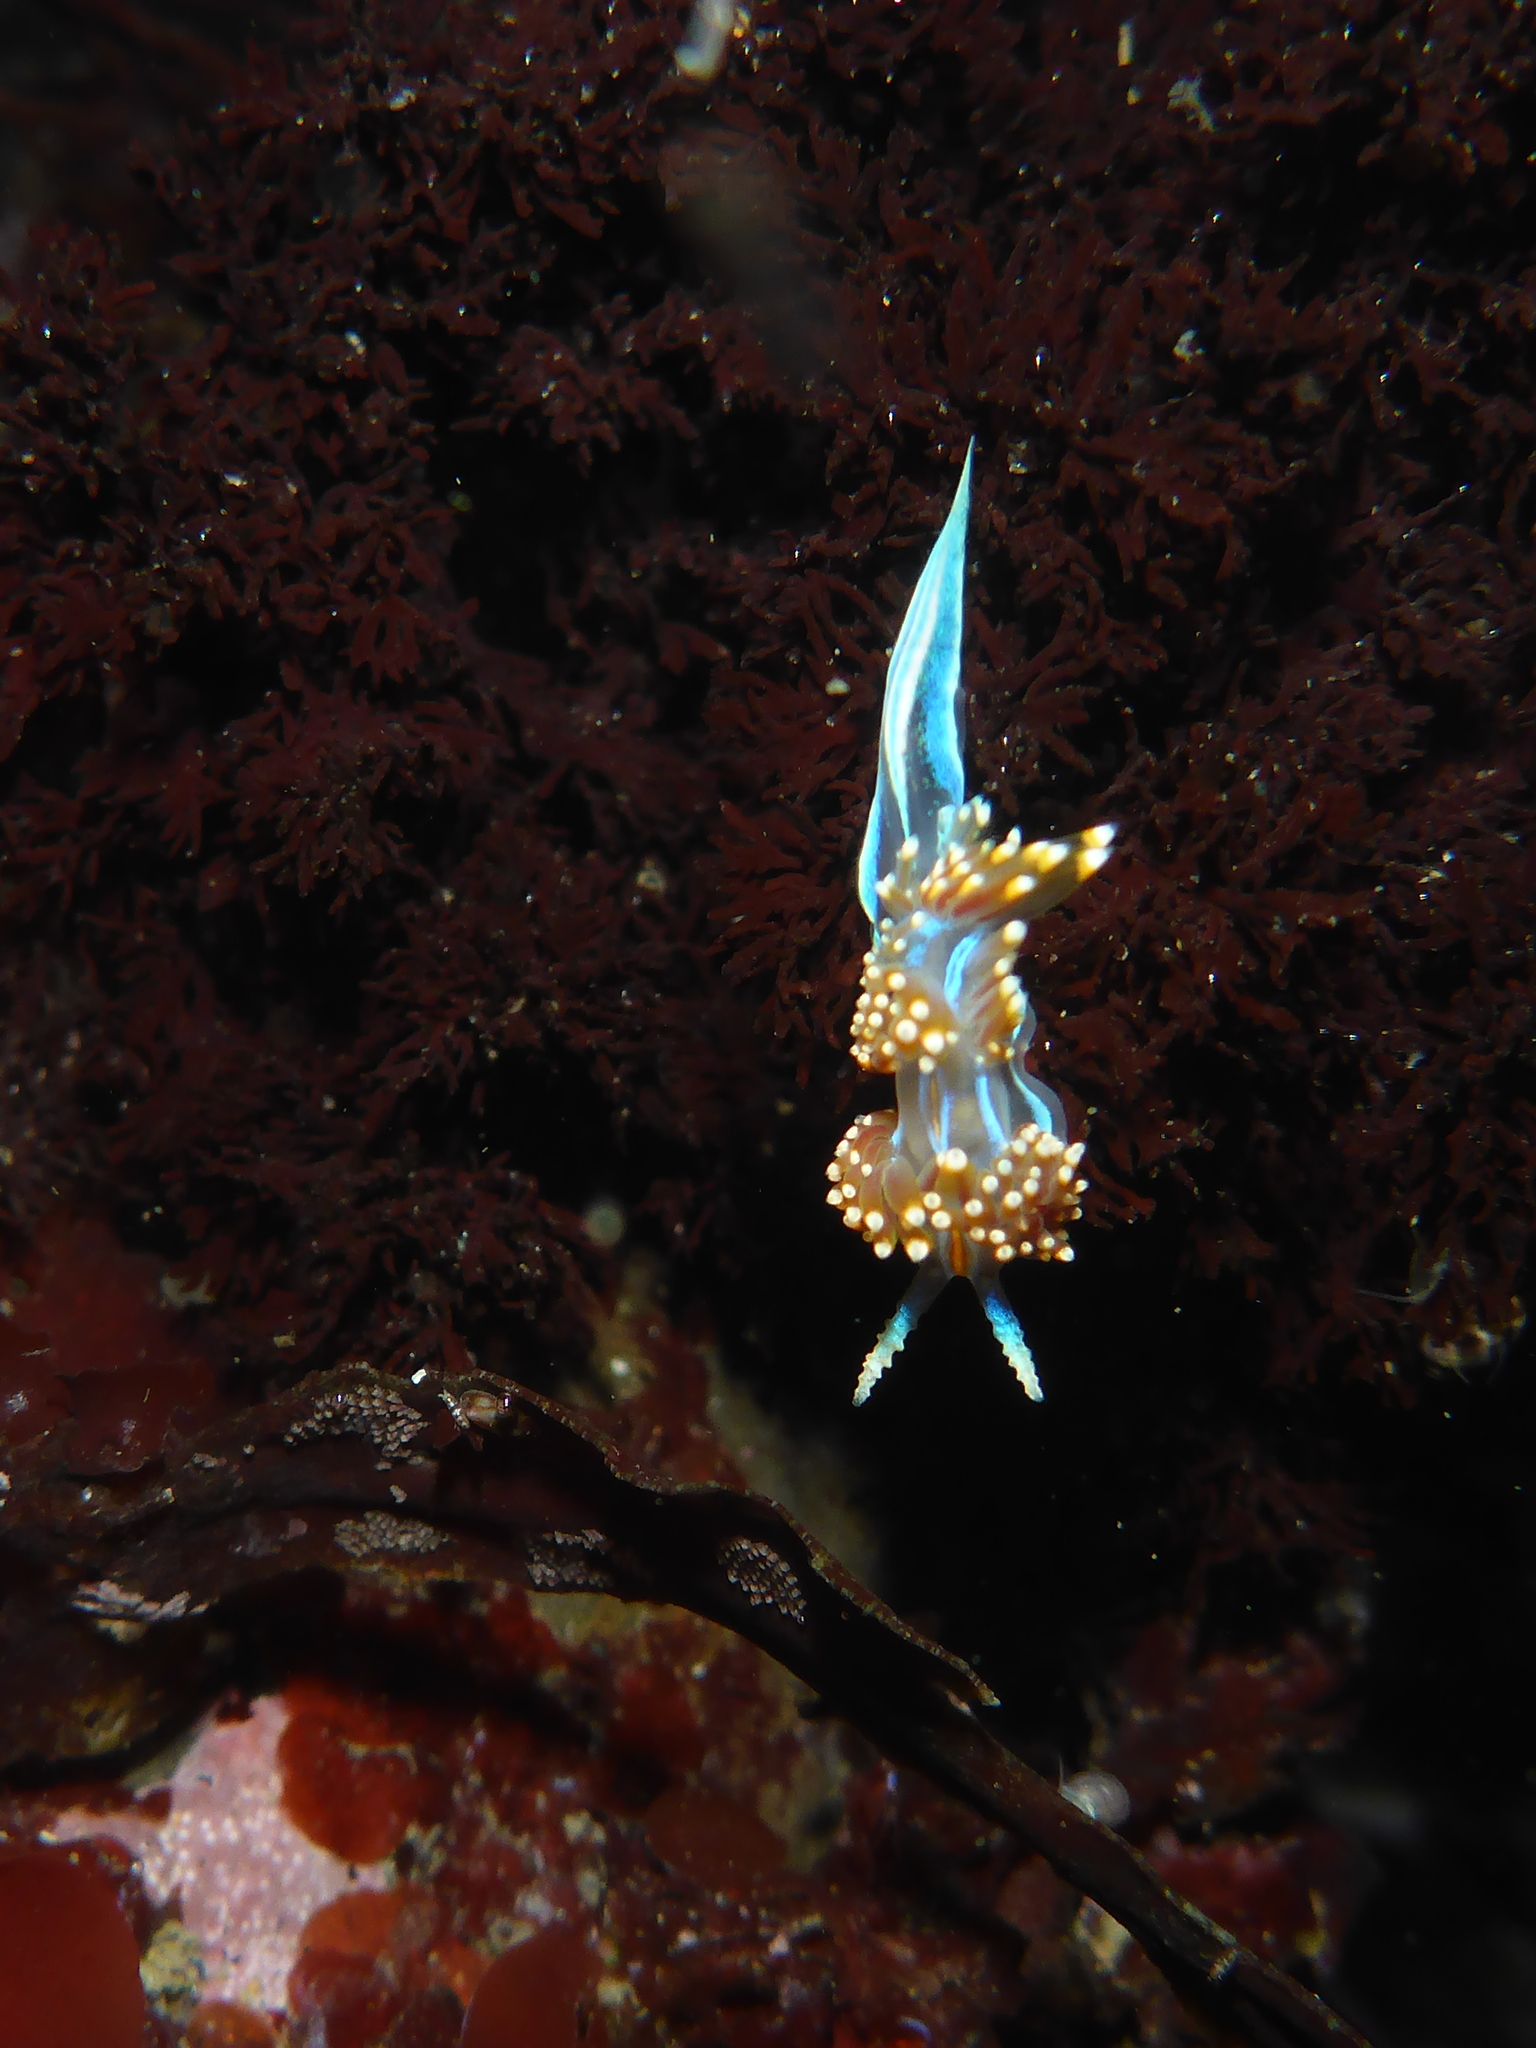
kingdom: Animalia
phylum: Mollusca
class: Gastropoda
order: Nudibranchia
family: Myrrhinidae
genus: Hermissenda
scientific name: Hermissenda opalescens
